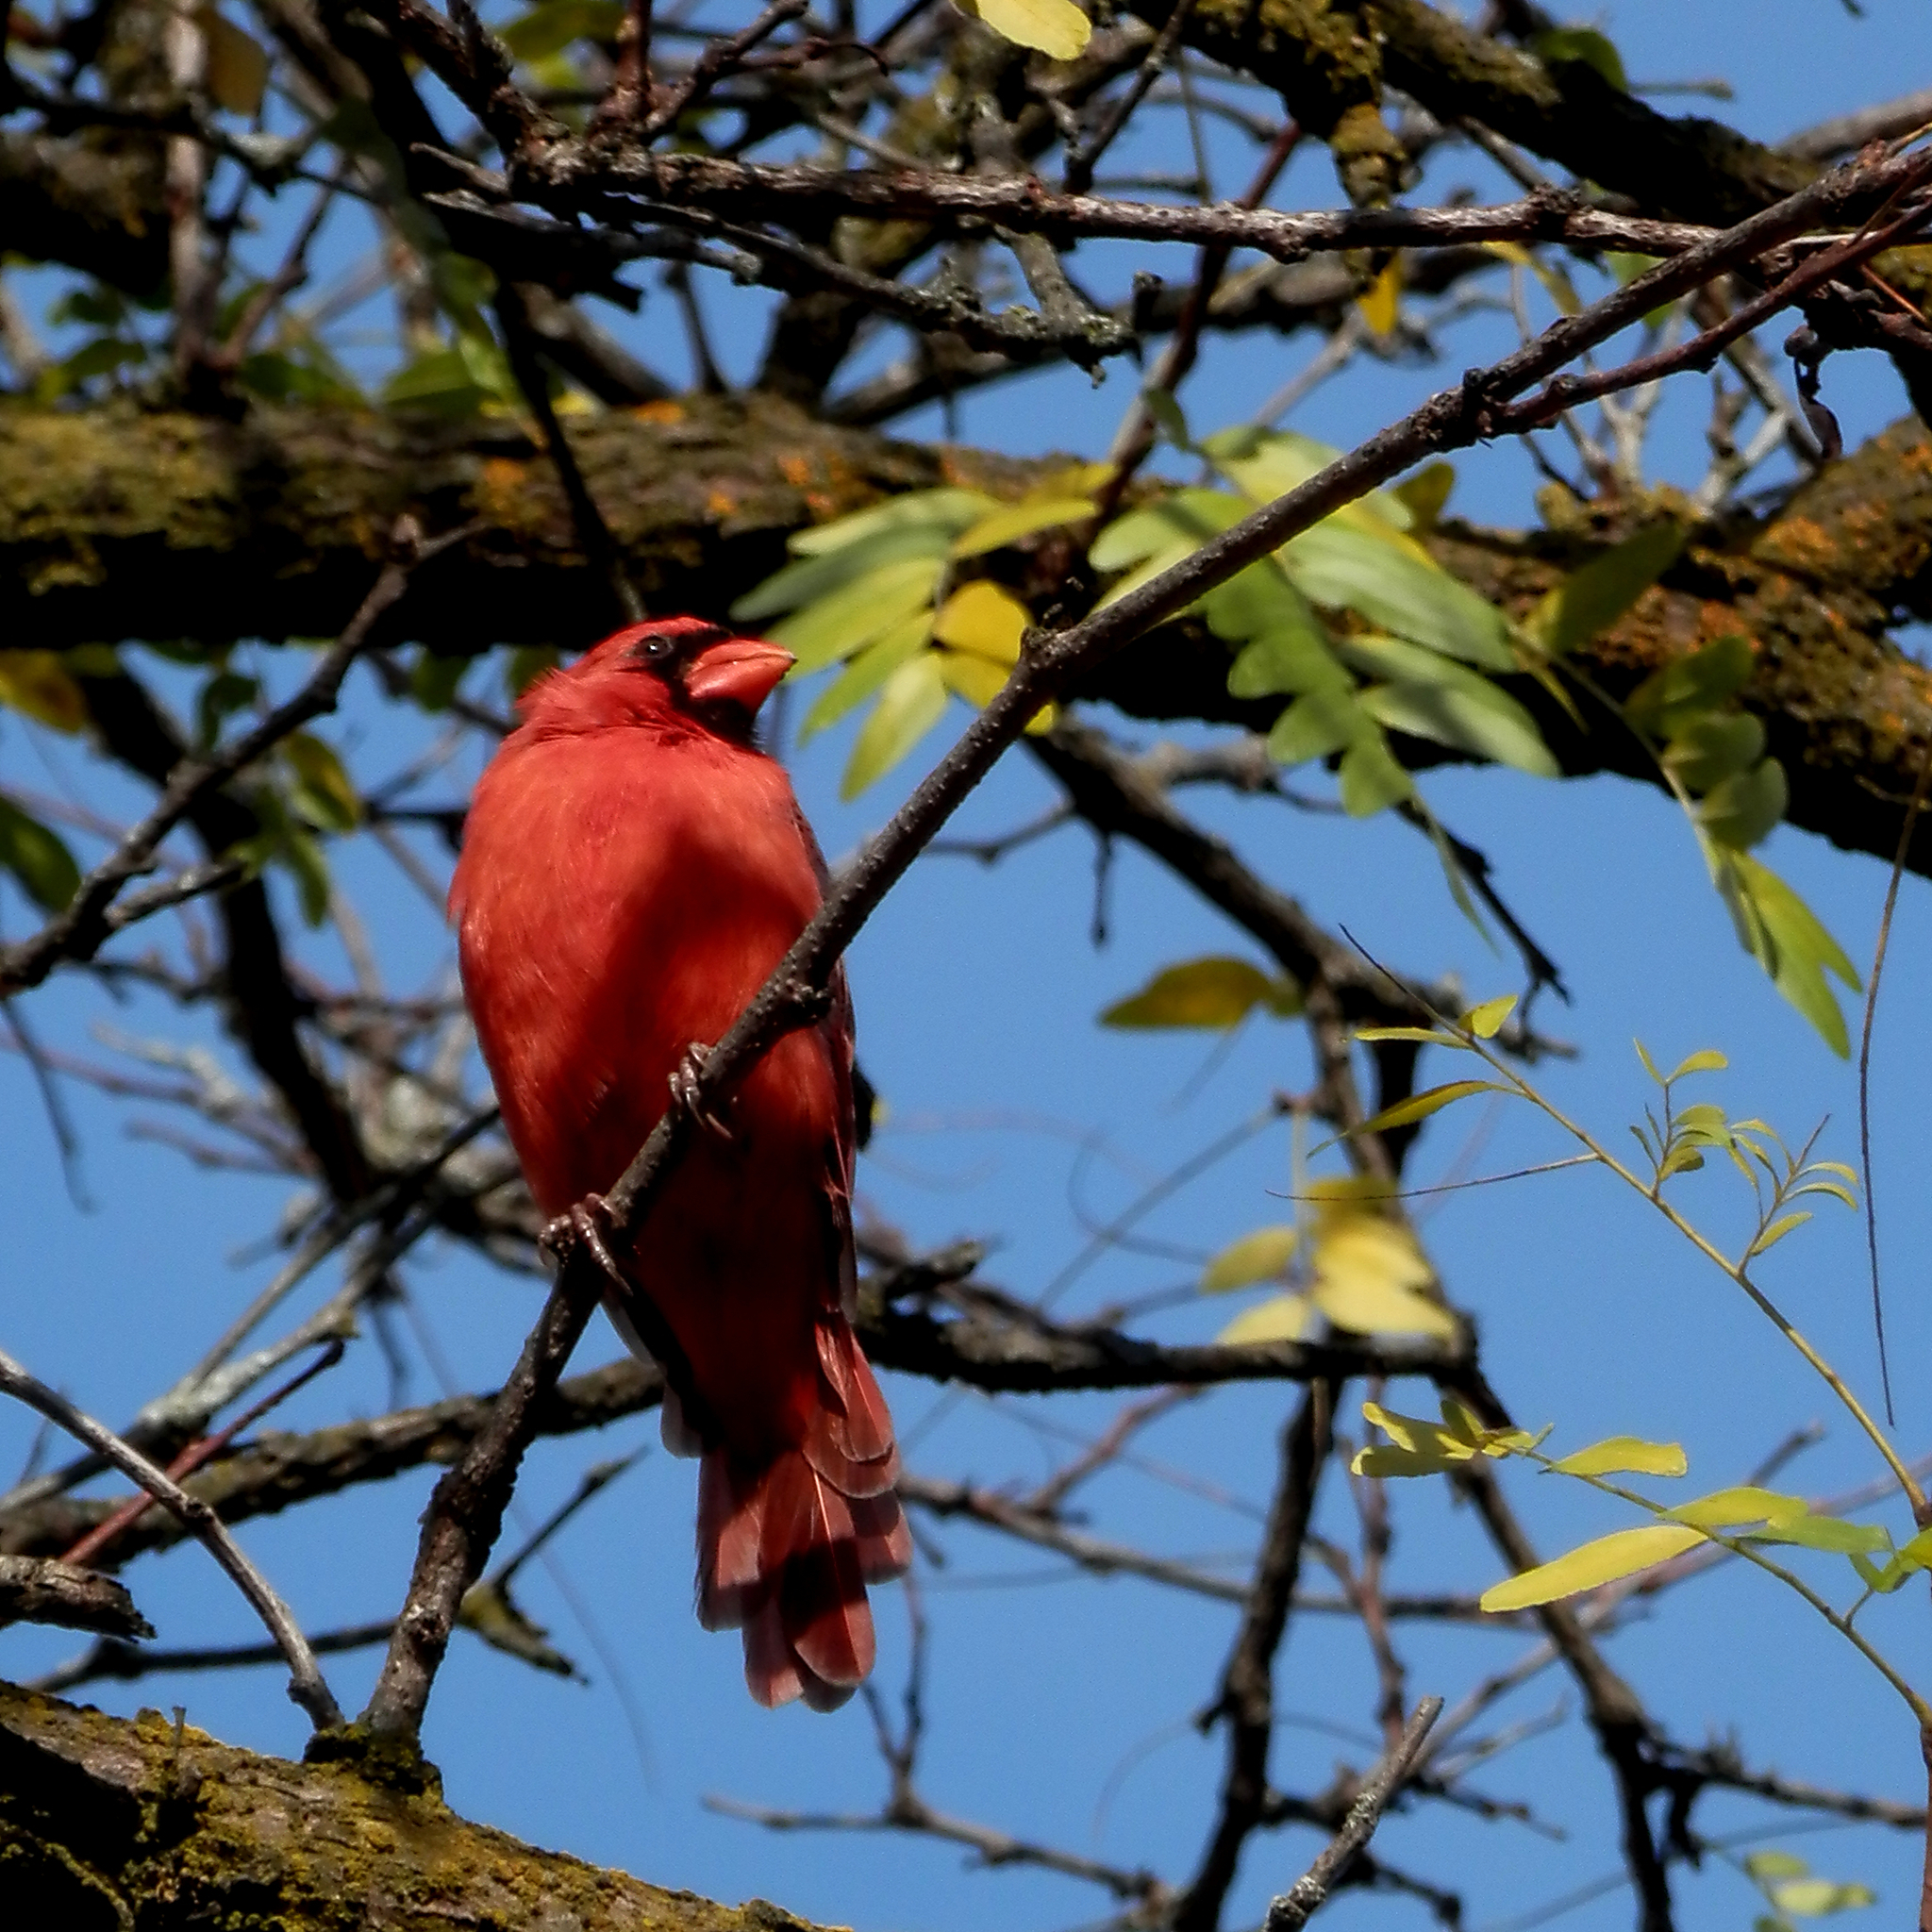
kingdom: Animalia
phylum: Chordata
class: Aves
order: Passeriformes
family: Cardinalidae
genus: Cardinalis
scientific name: Cardinalis cardinalis
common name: Northern cardinal
